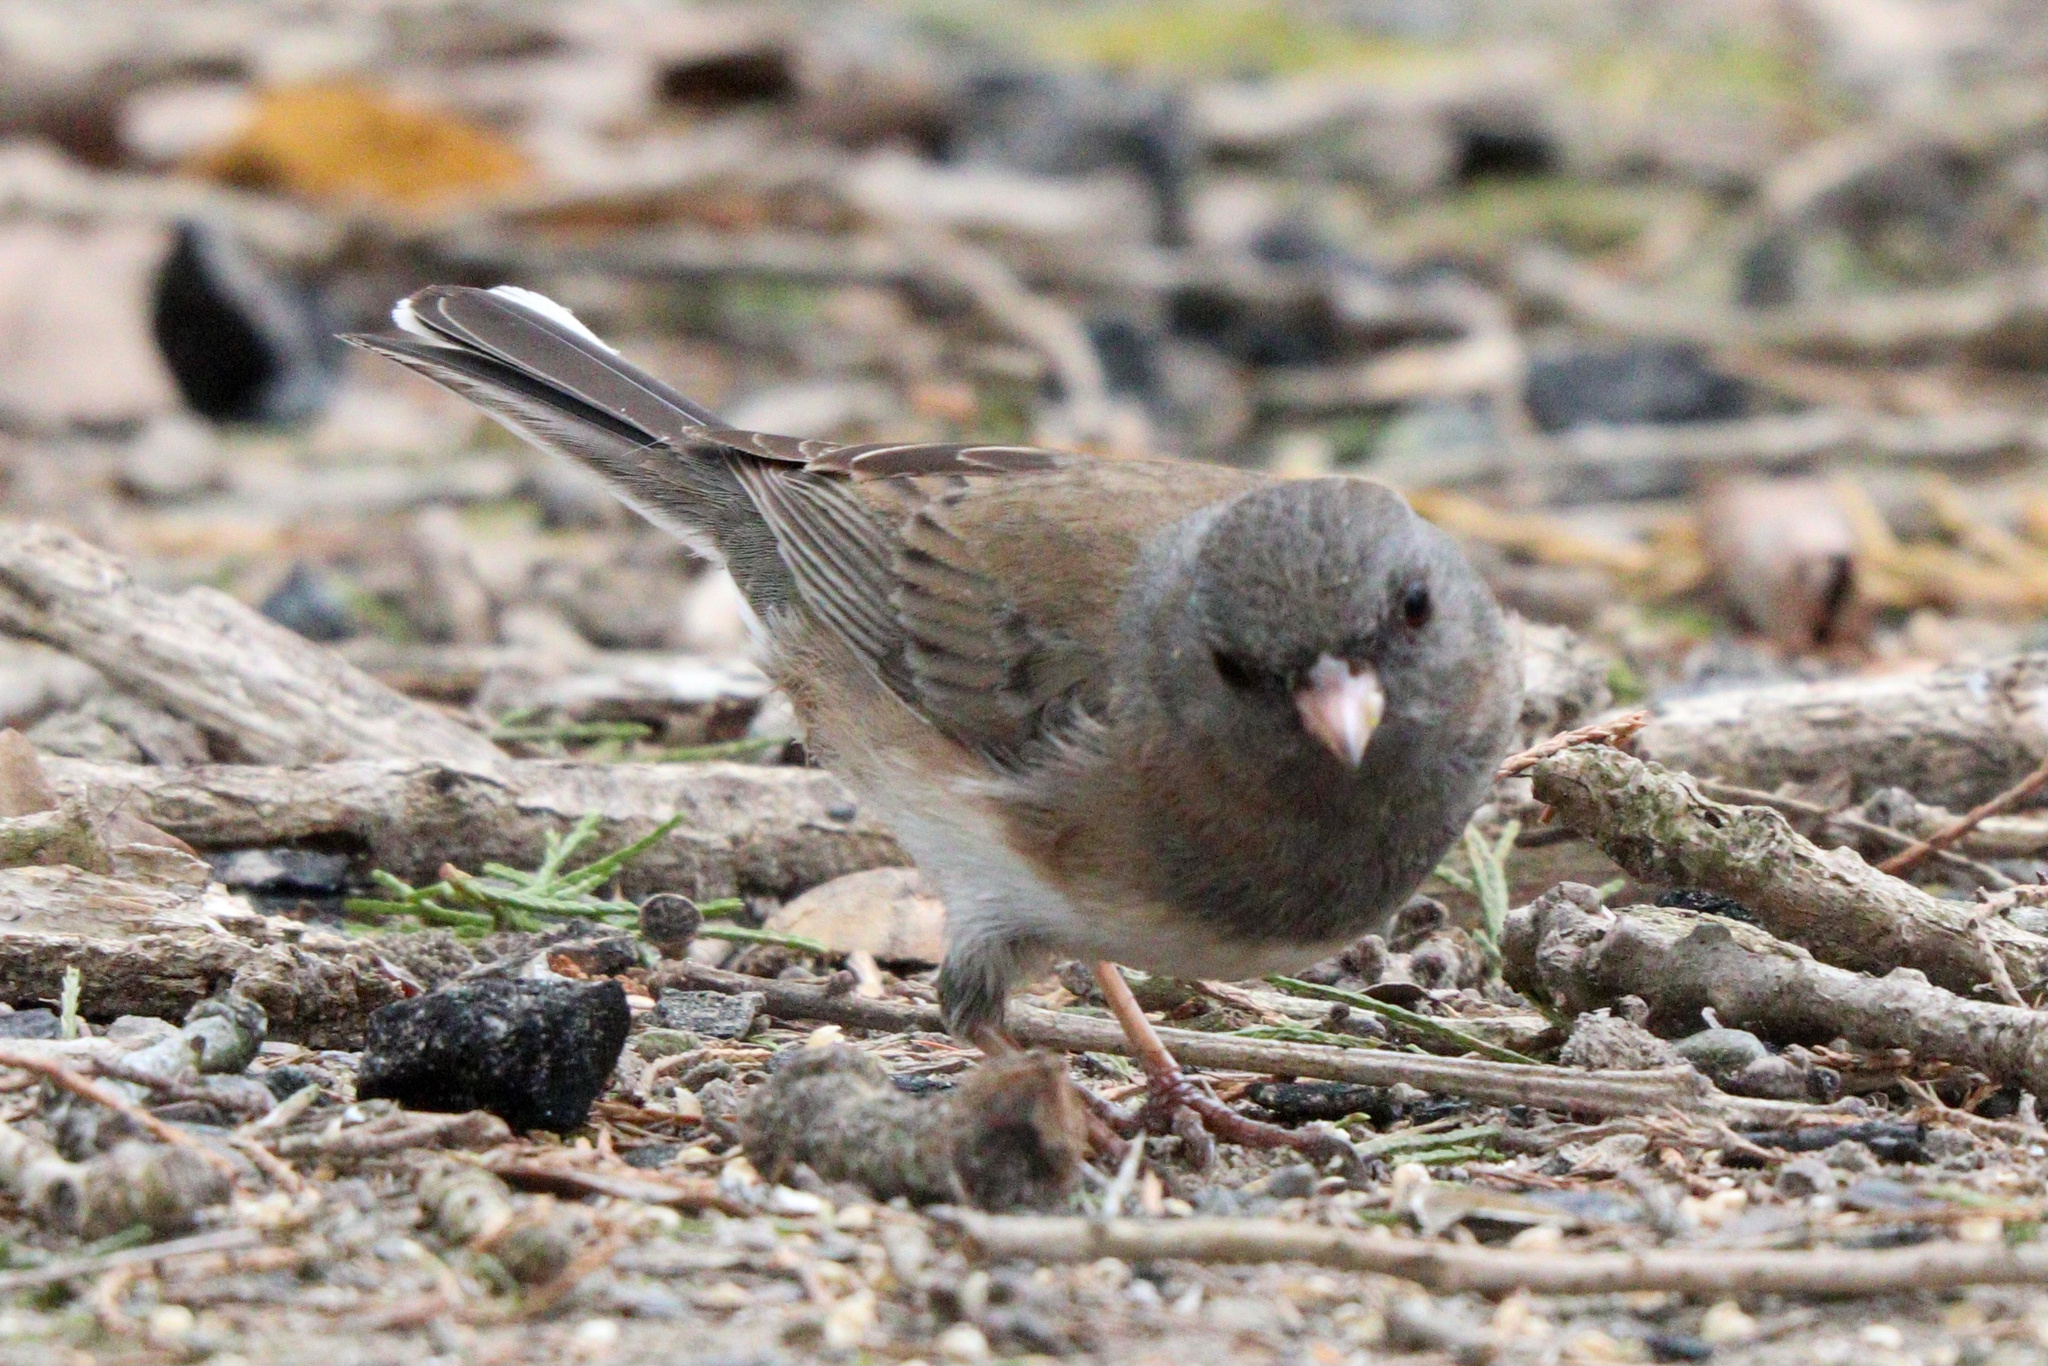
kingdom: Animalia
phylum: Chordata
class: Aves
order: Passeriformes
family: Passerellidae
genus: Junco
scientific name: Junco hyemalis
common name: Dark-eyed junco
